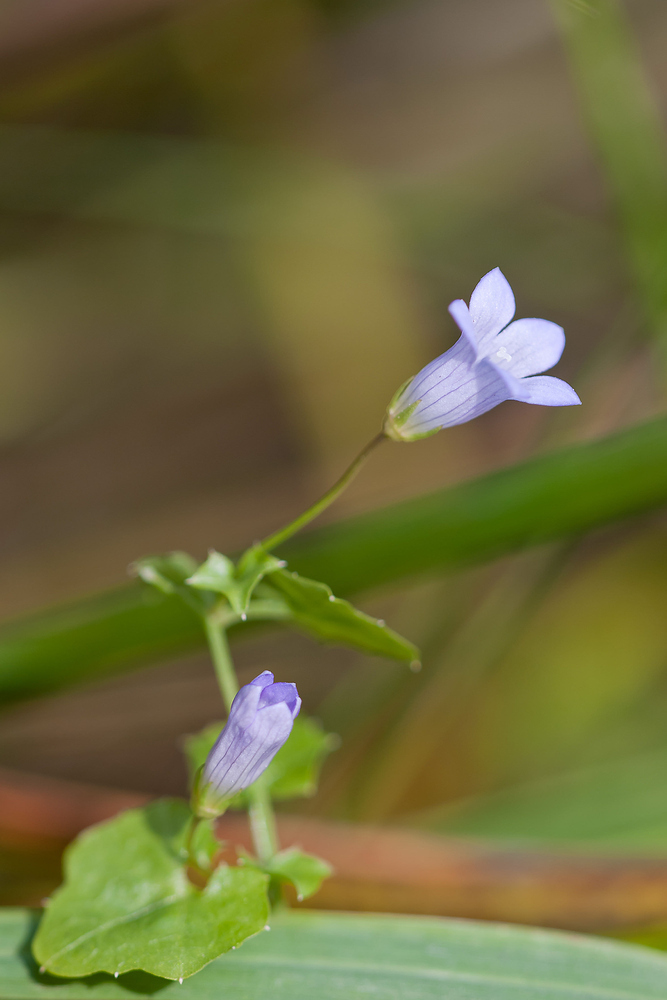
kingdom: Plantae
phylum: Tracheophyta
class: Magnoliopsida
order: Asterales
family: Campanulaceae
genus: Hesperocodon
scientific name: Hesperocodon hederaceus
